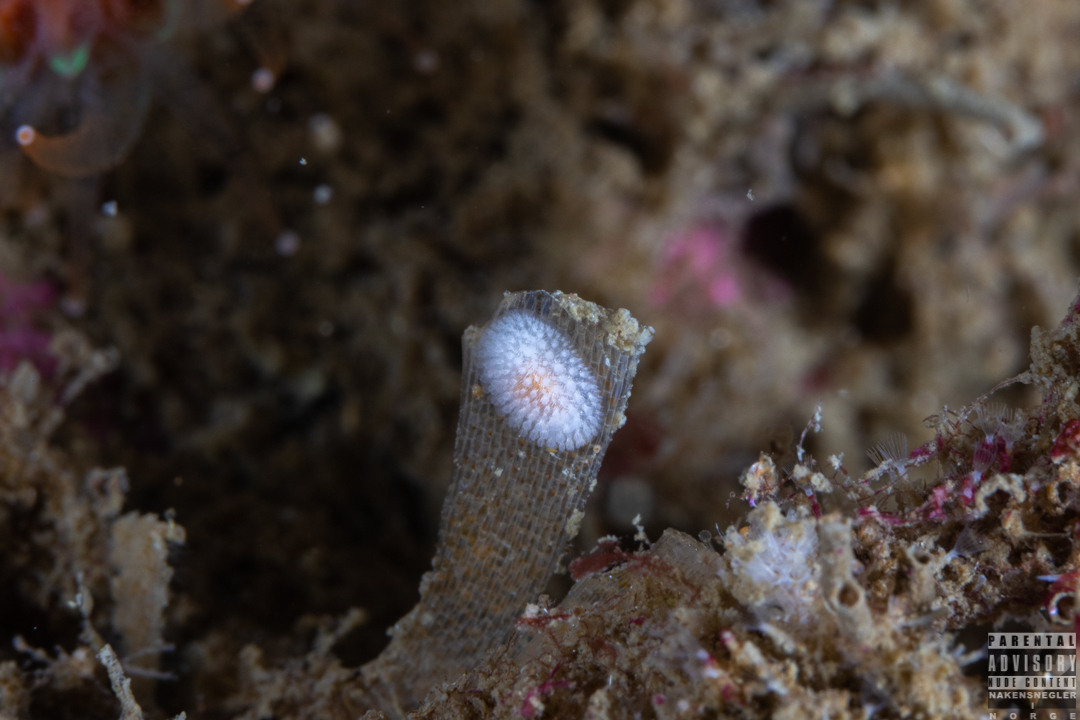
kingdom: Animalia
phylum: Mollusca
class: Gastropoda
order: Nudibranchia
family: Onchidorididae
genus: Onchidoris
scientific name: Onchidoris muricata
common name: Rough doris
